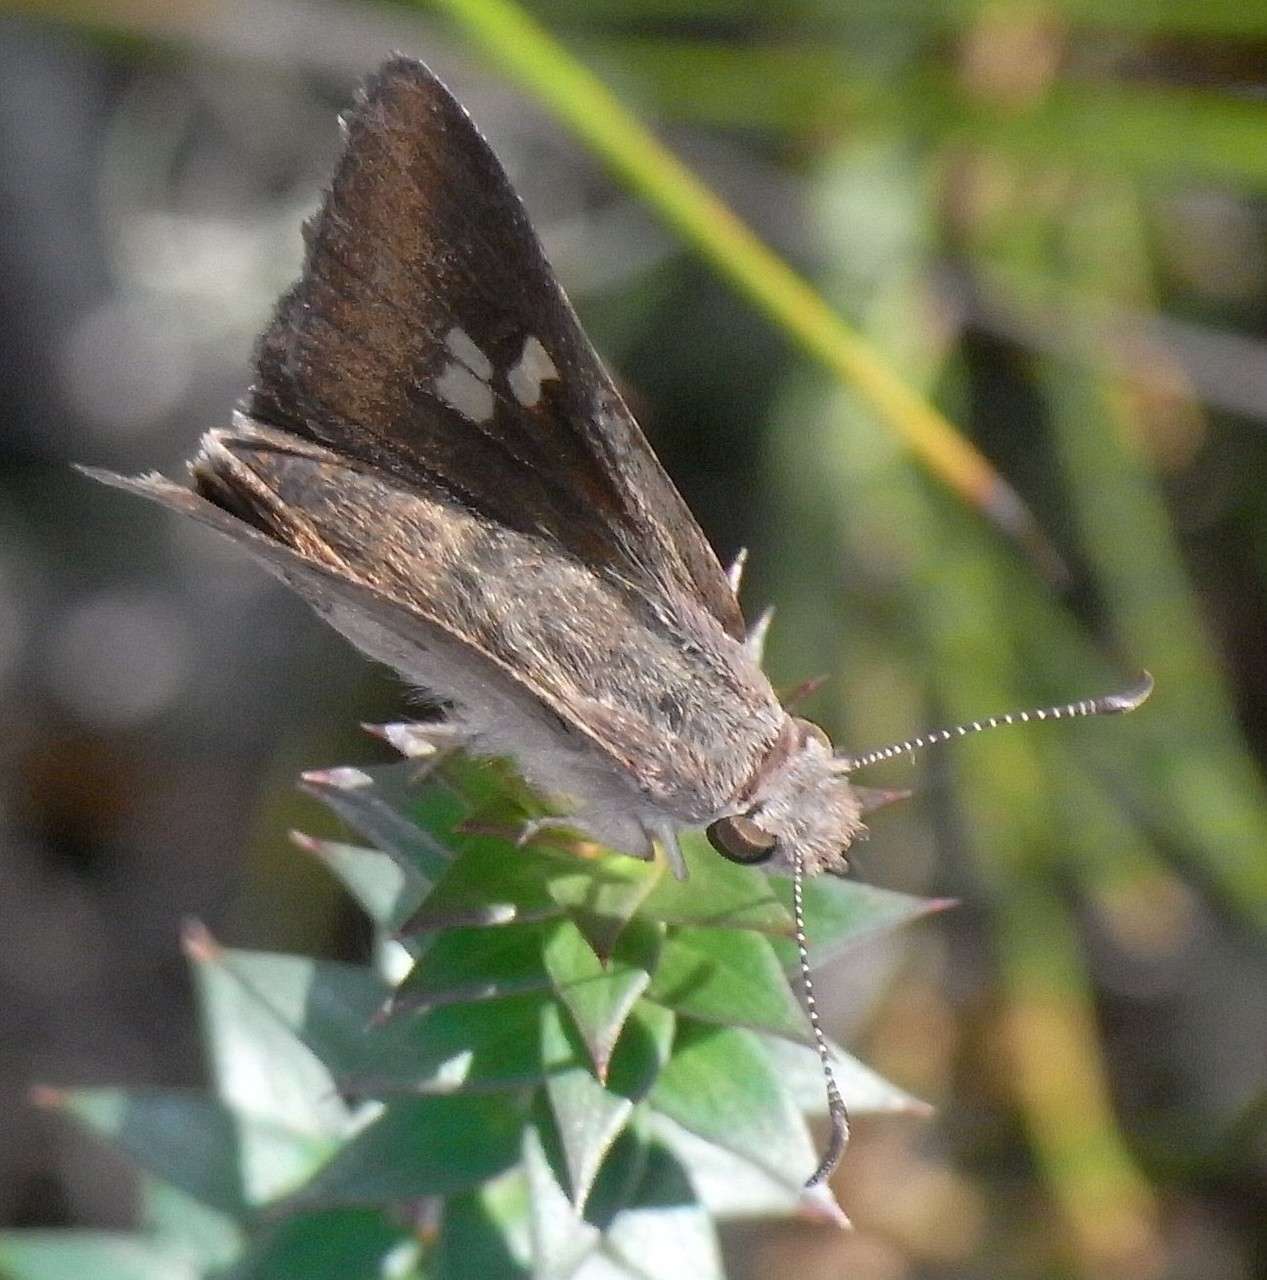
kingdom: Animalia
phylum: Arthropoda
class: Insecta
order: Lepidoptera
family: Hesperiidae
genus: Mesodina
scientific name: Mesodina halyzia
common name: Eastern iris-skipper
